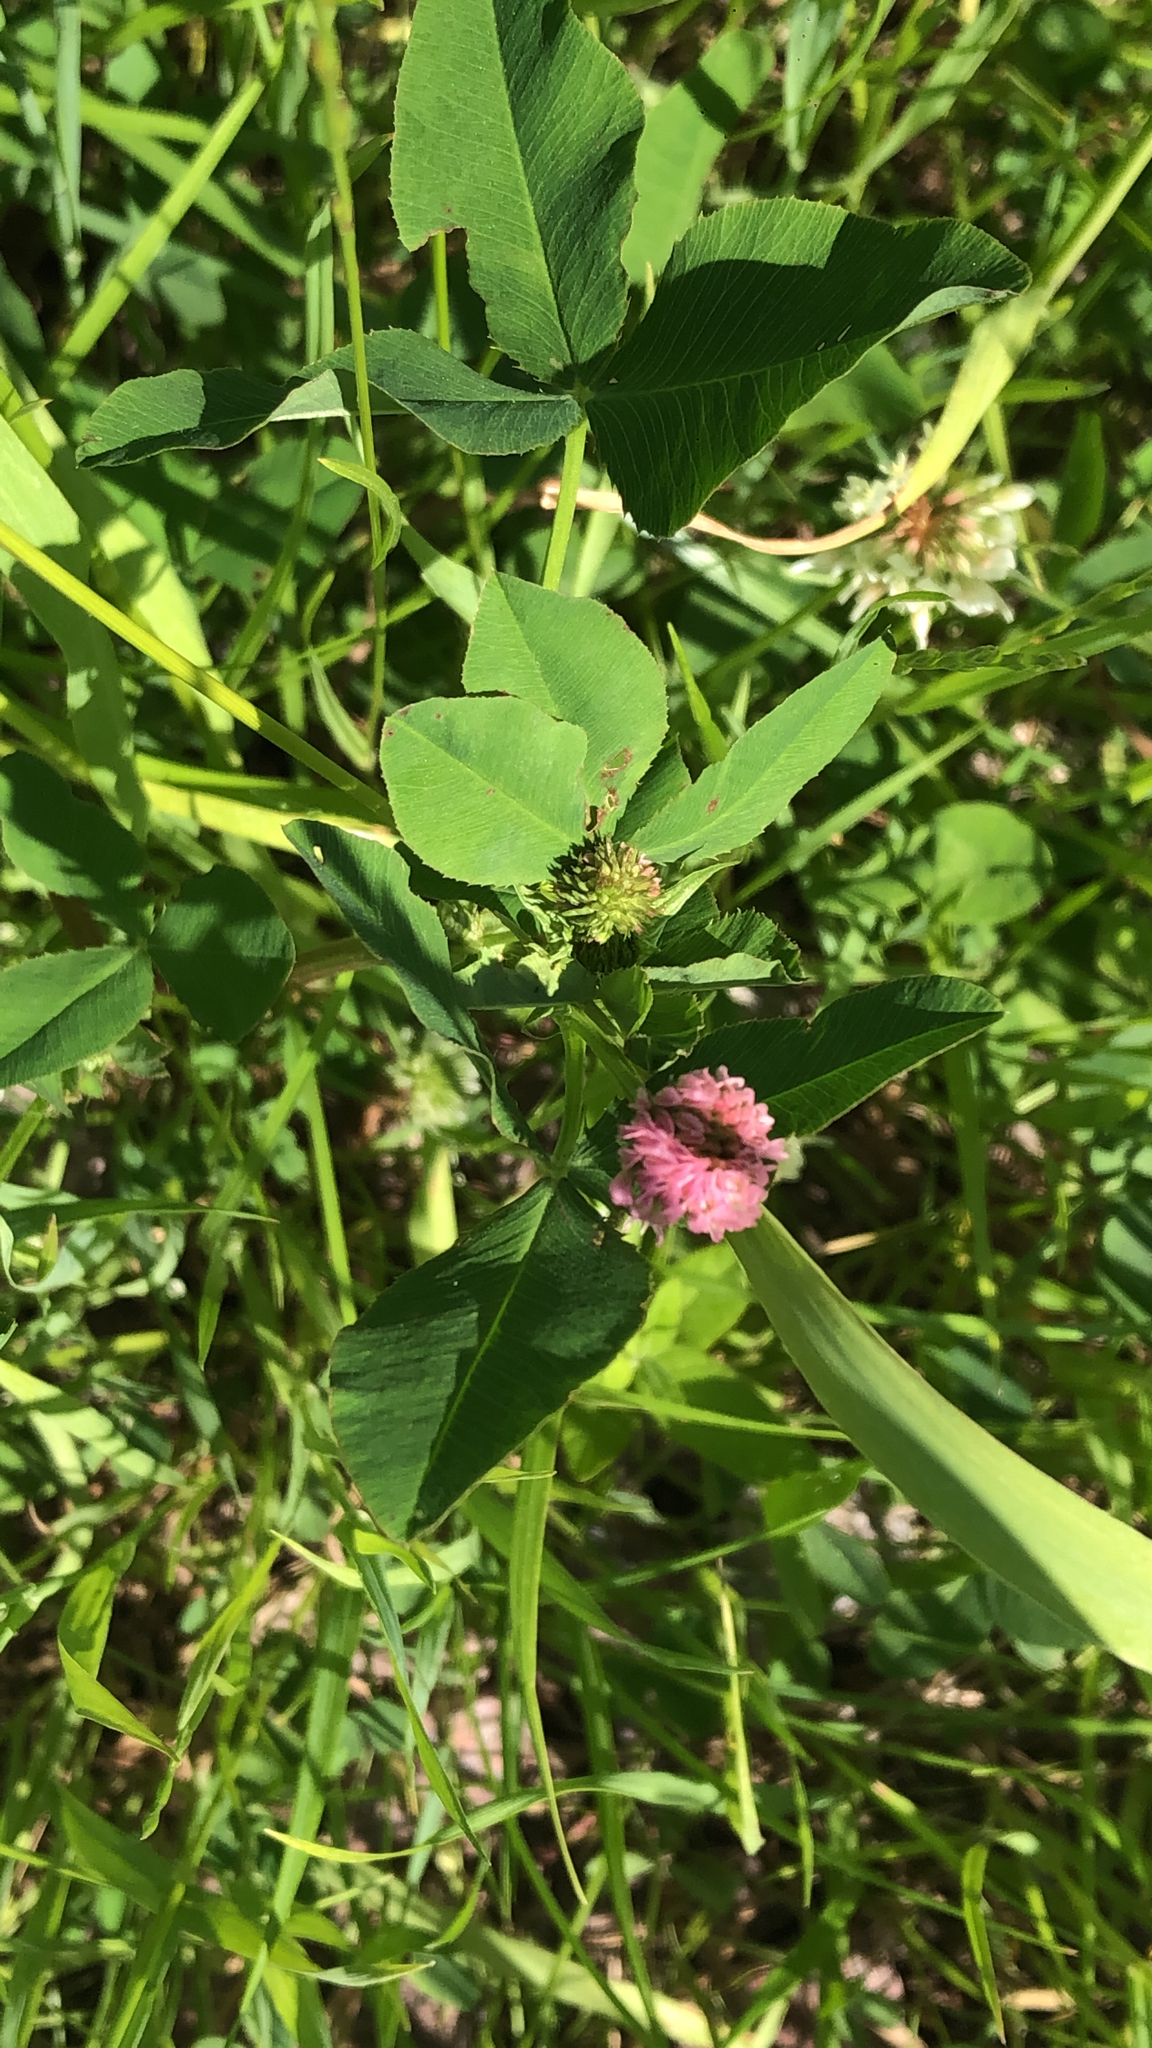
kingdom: Plantae
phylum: Tracheophyta
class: Magnoliopsida
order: Fabales
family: Fabaceae
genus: Trifolium
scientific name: Trifolium hybridum
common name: Alsike clover
